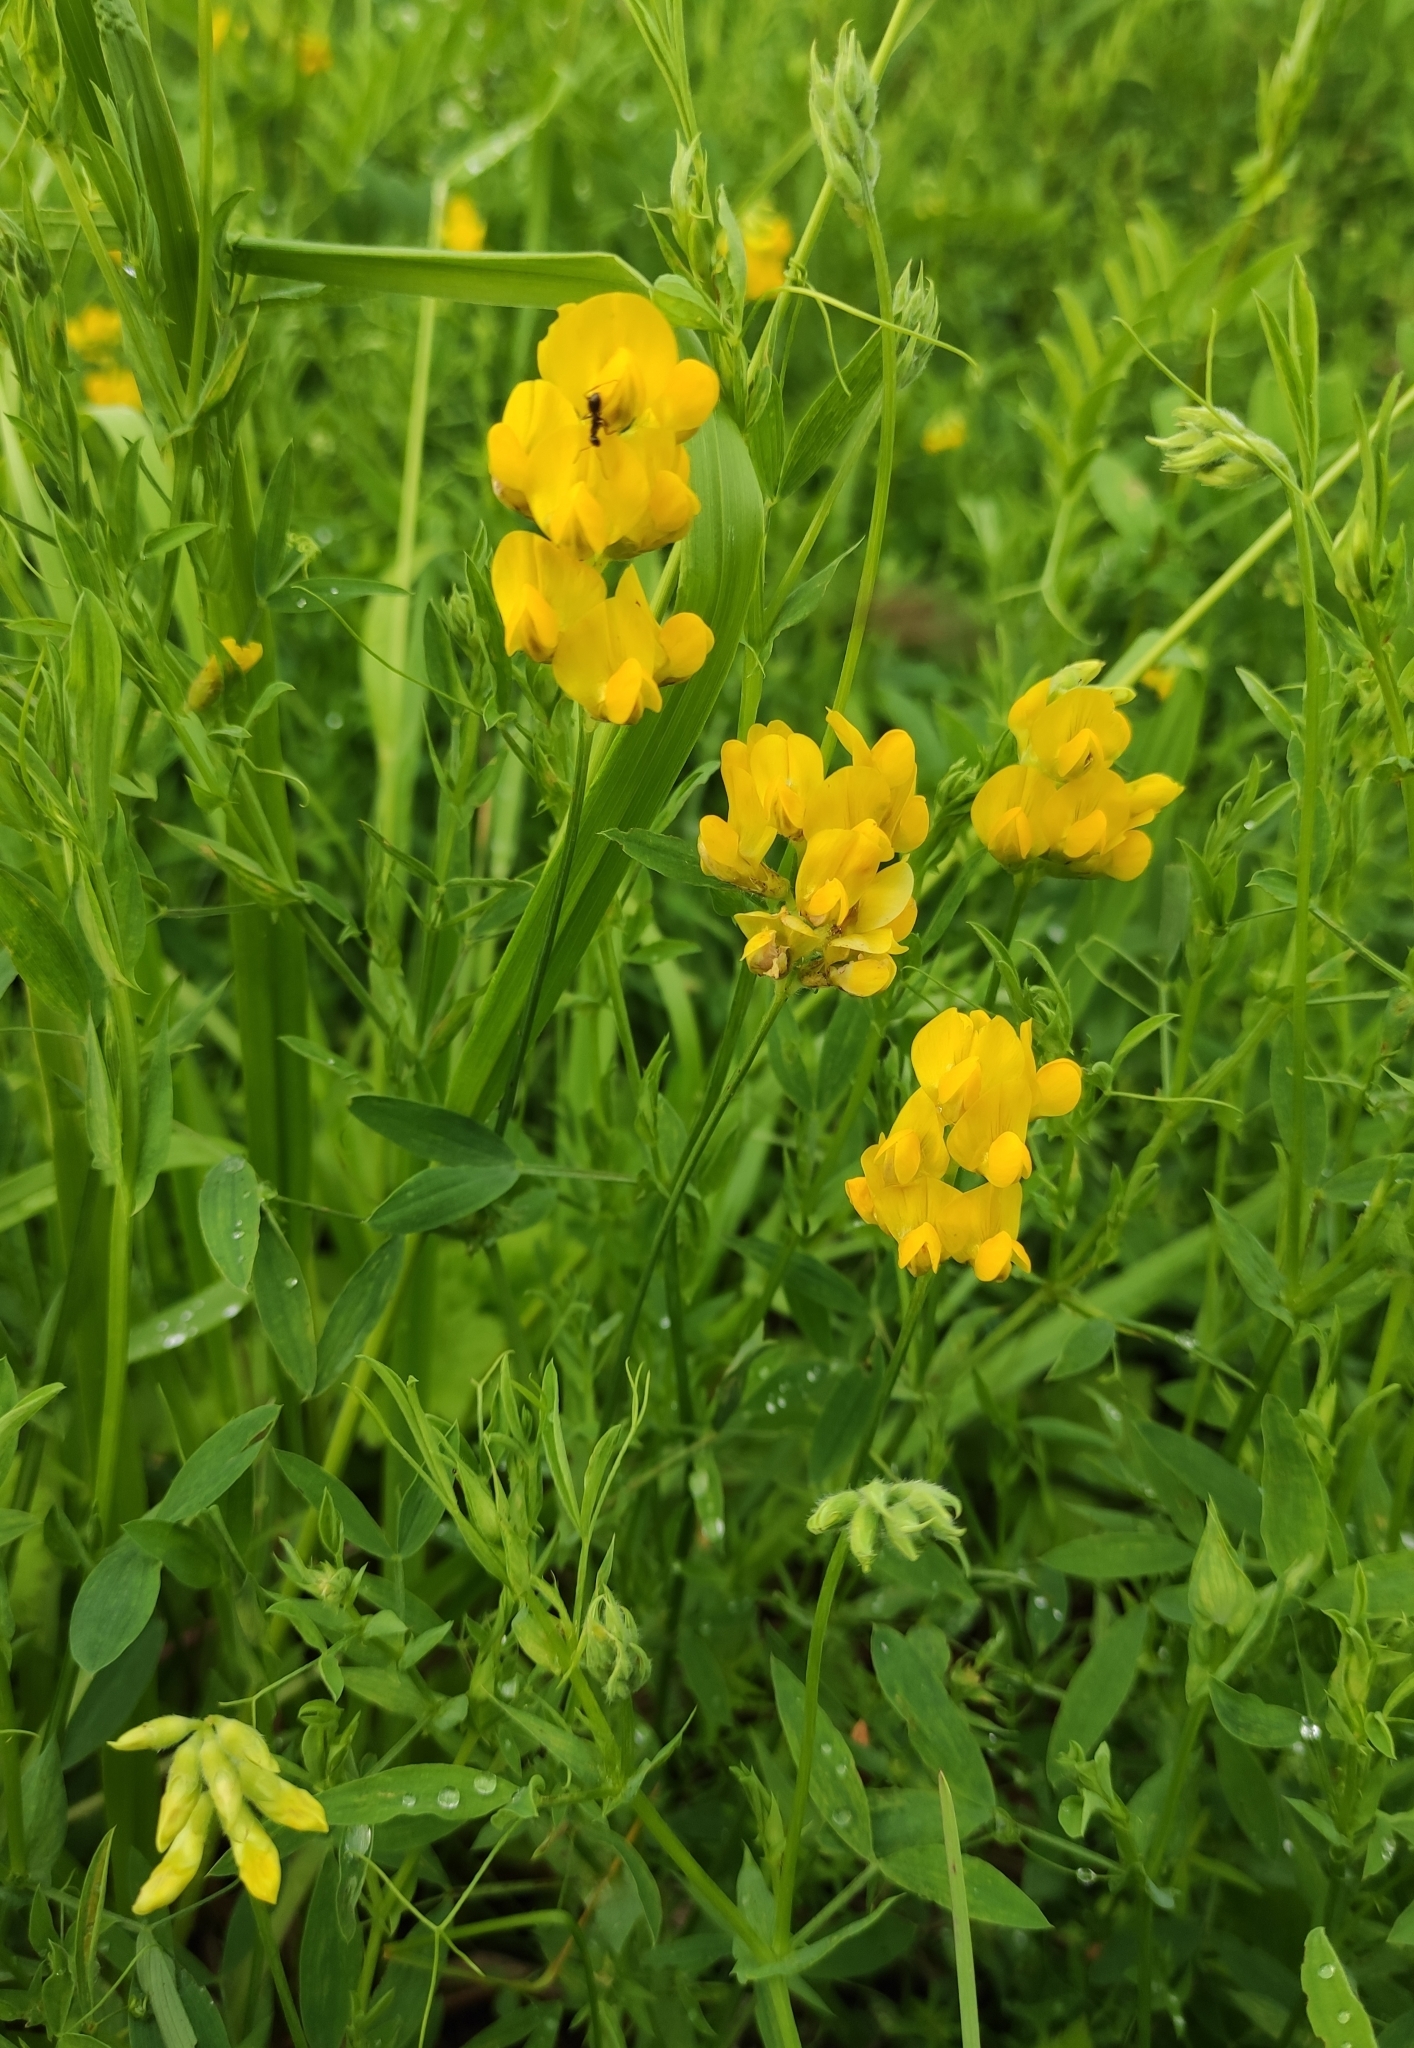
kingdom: Plantae
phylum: Tracheophyta
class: Magnoliopsida
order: Fabales
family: Fabaceae
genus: Lathyrus
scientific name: Lathyrus pratensis
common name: Meadow vetchling
